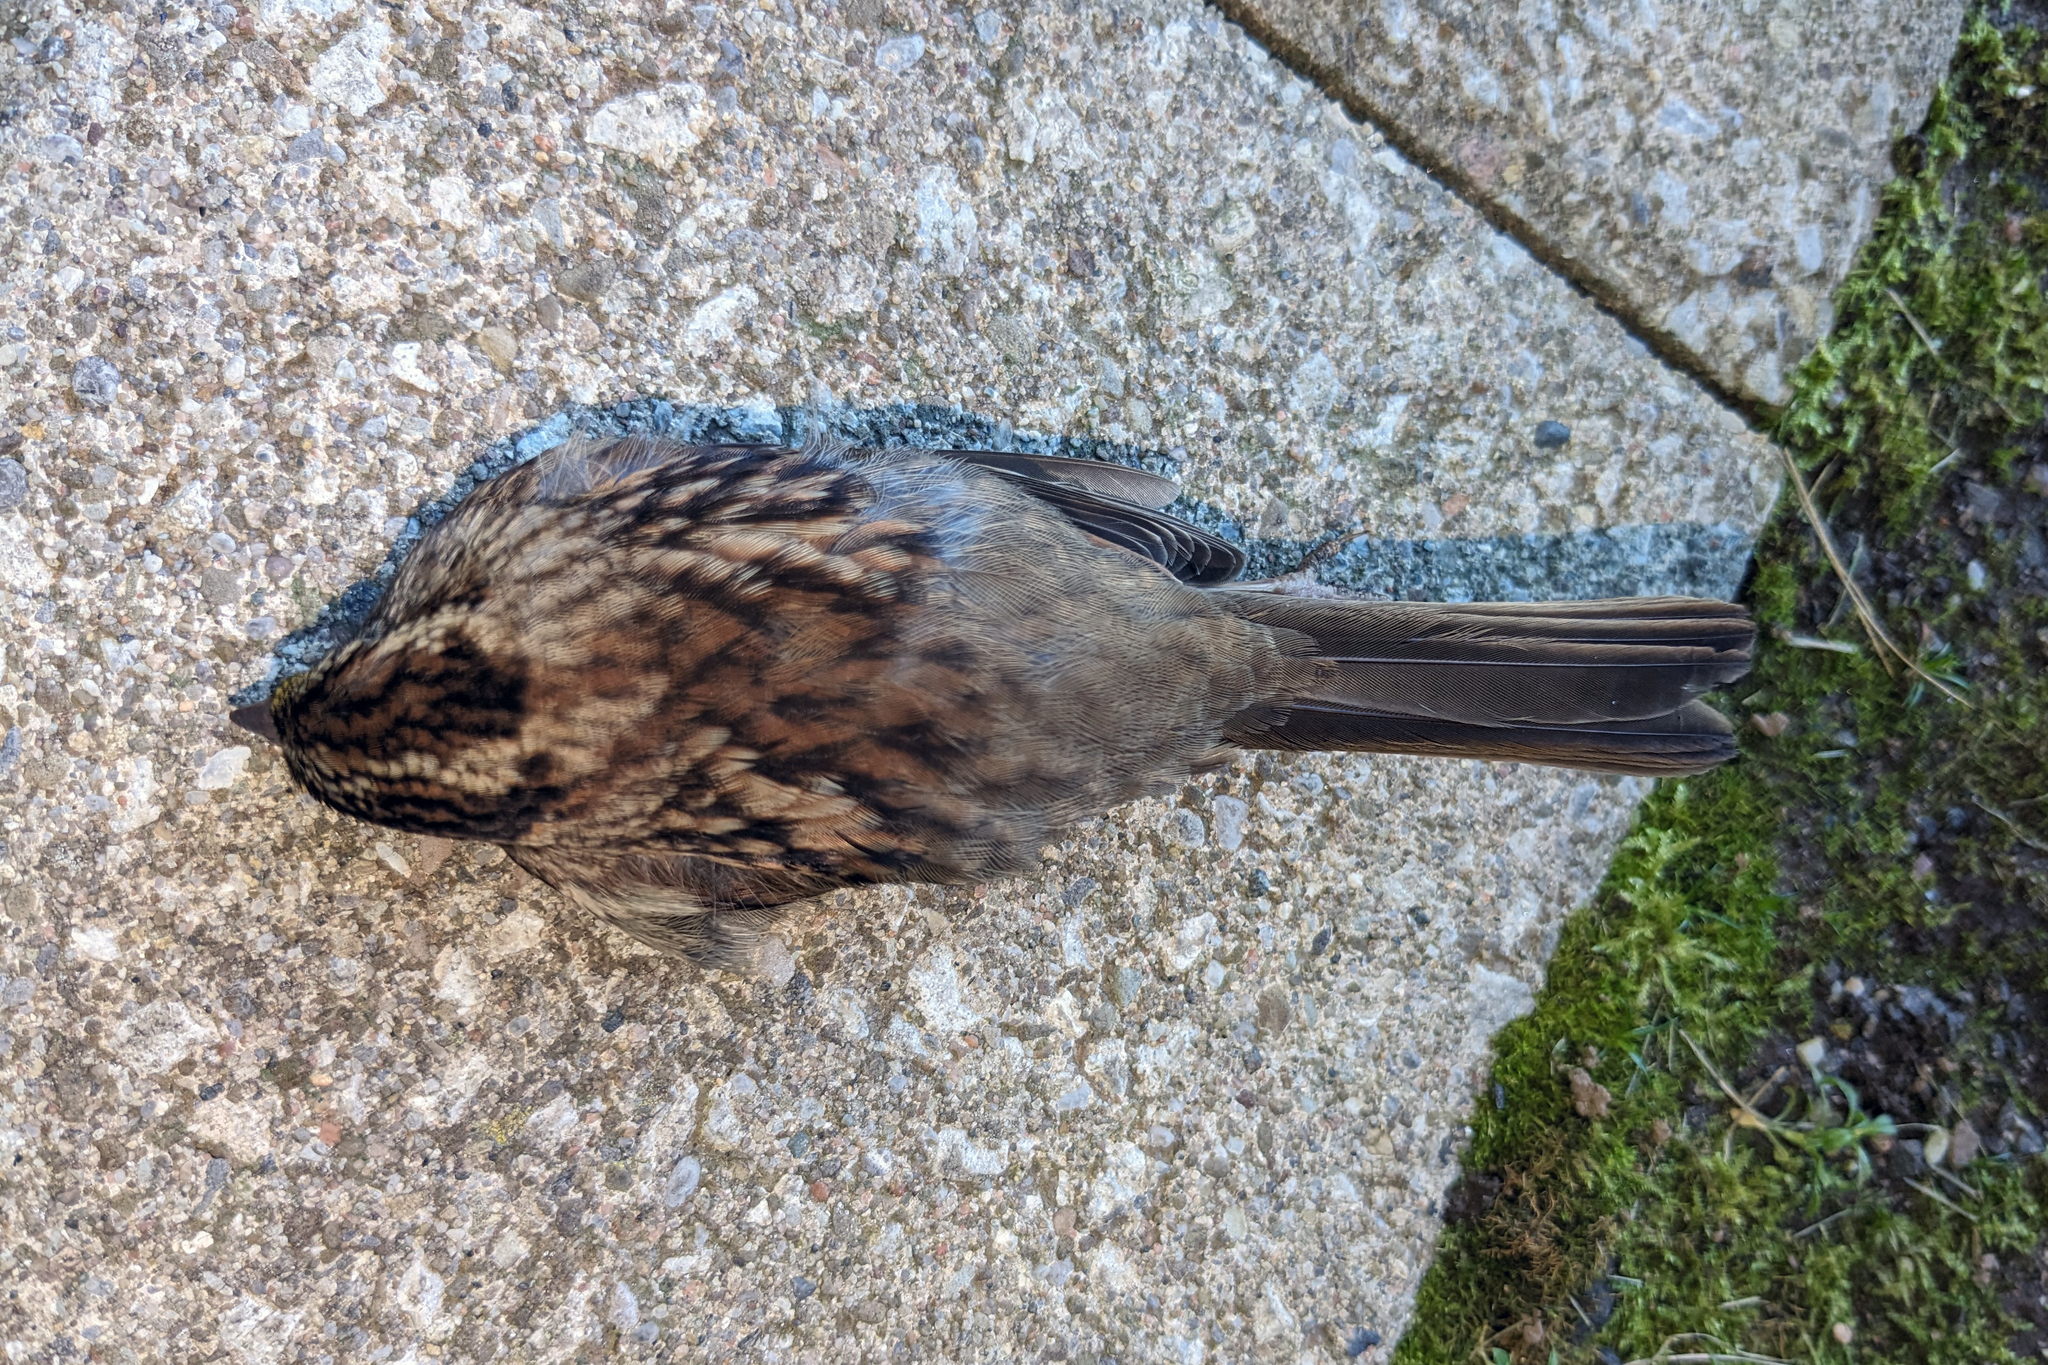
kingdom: Animalia
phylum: Chordata
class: Aves
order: Passeriformes
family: Passerellidae
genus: Zonotrichia
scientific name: Zonotrichia albicollis
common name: White-throated sparrow
